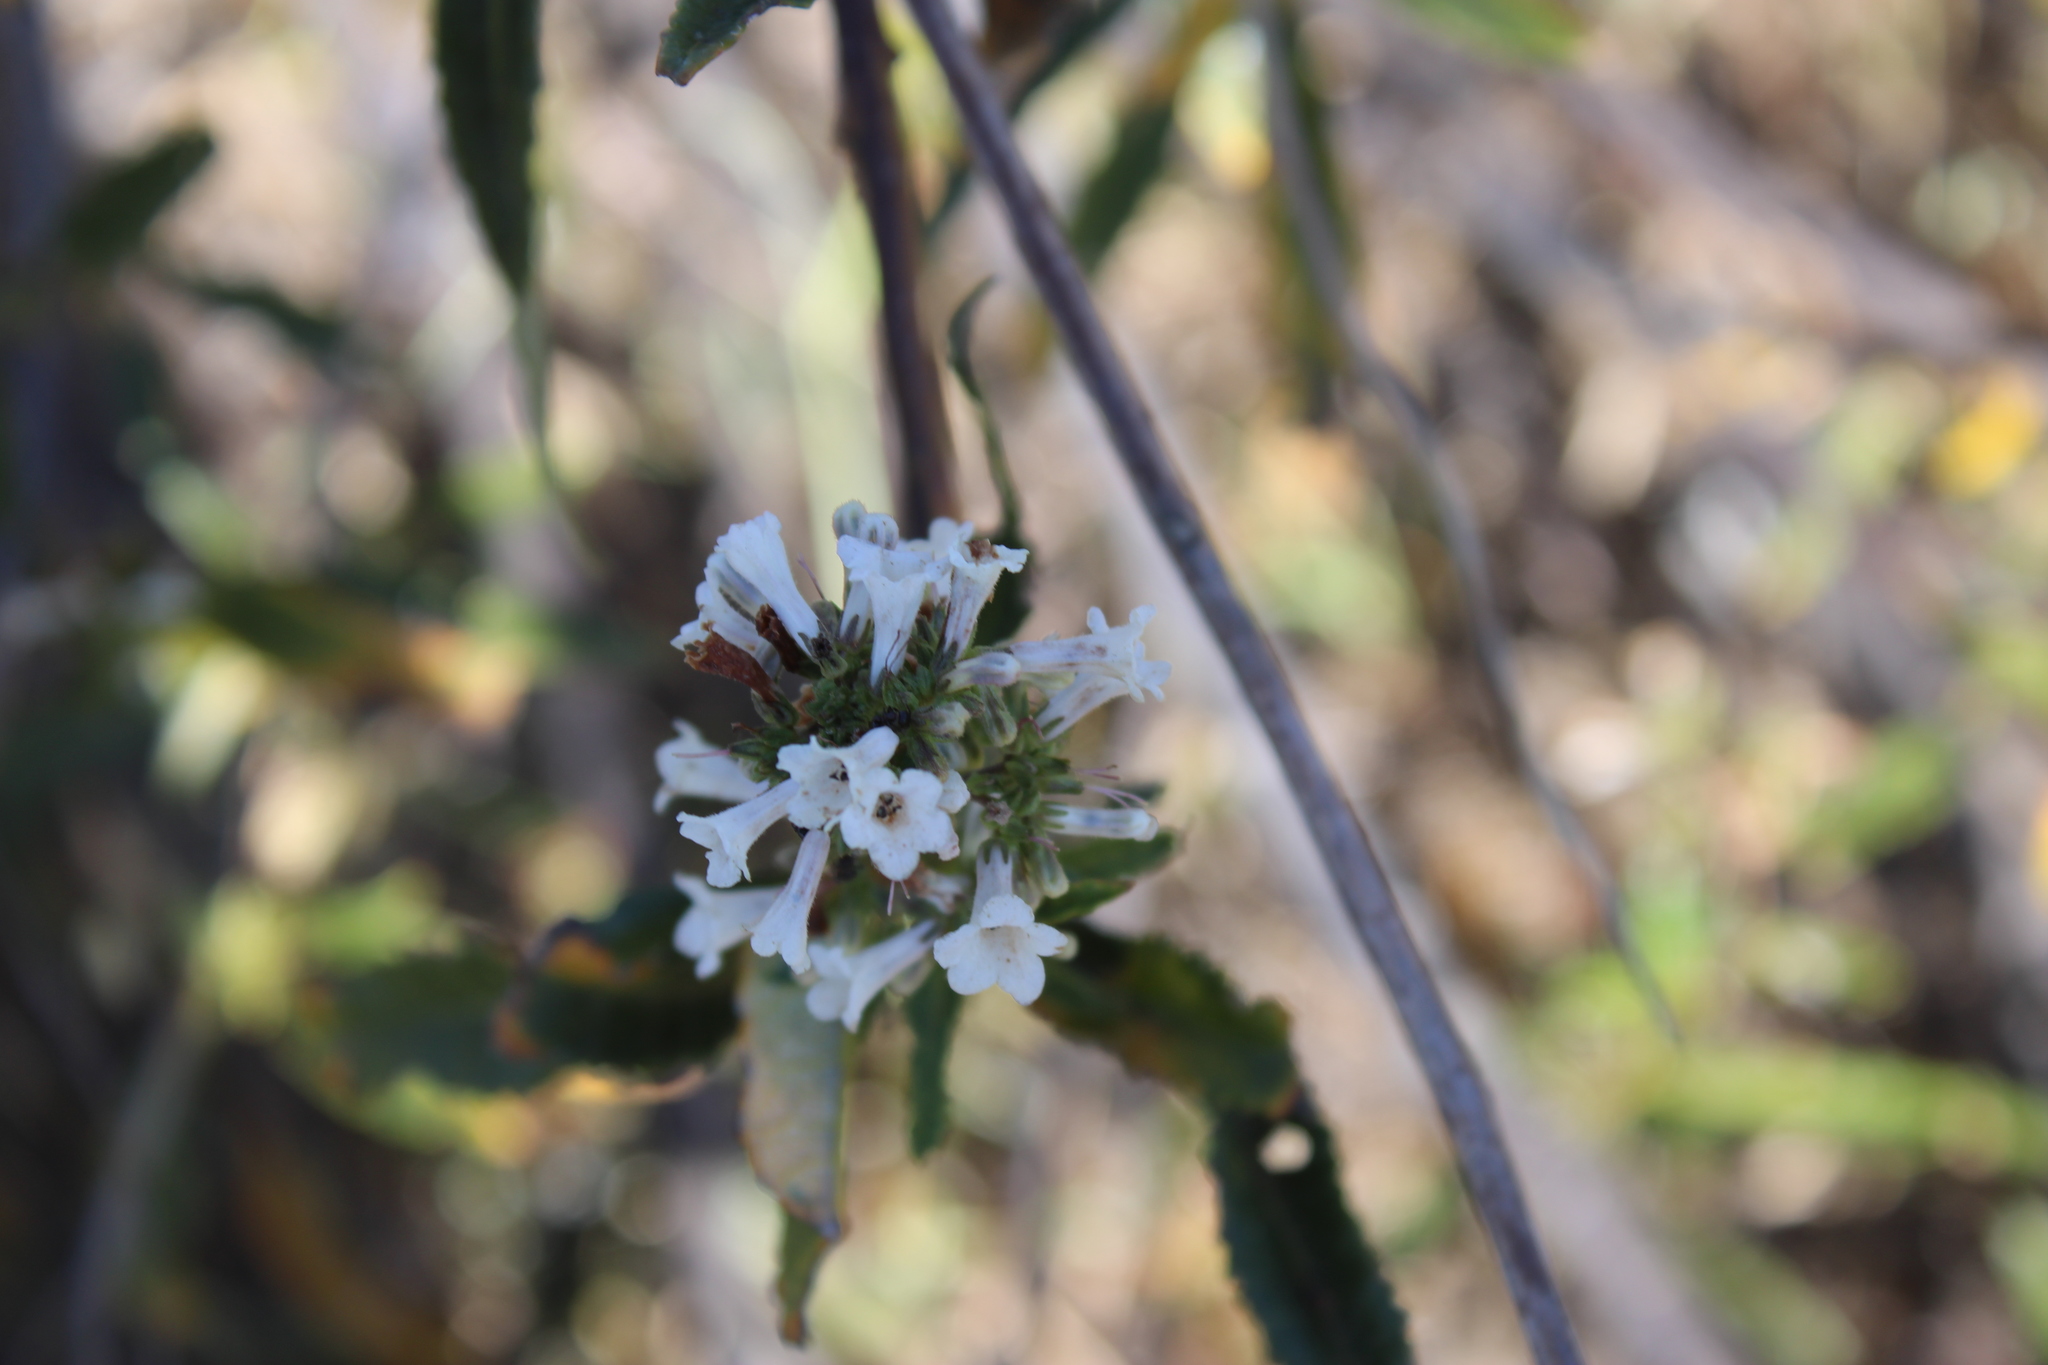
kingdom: Plantae
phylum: Tracheophyta
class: Magnoliopsida
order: Boraginales
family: Namaceae
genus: Eriodictyon
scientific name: Eriodictyon californicum
